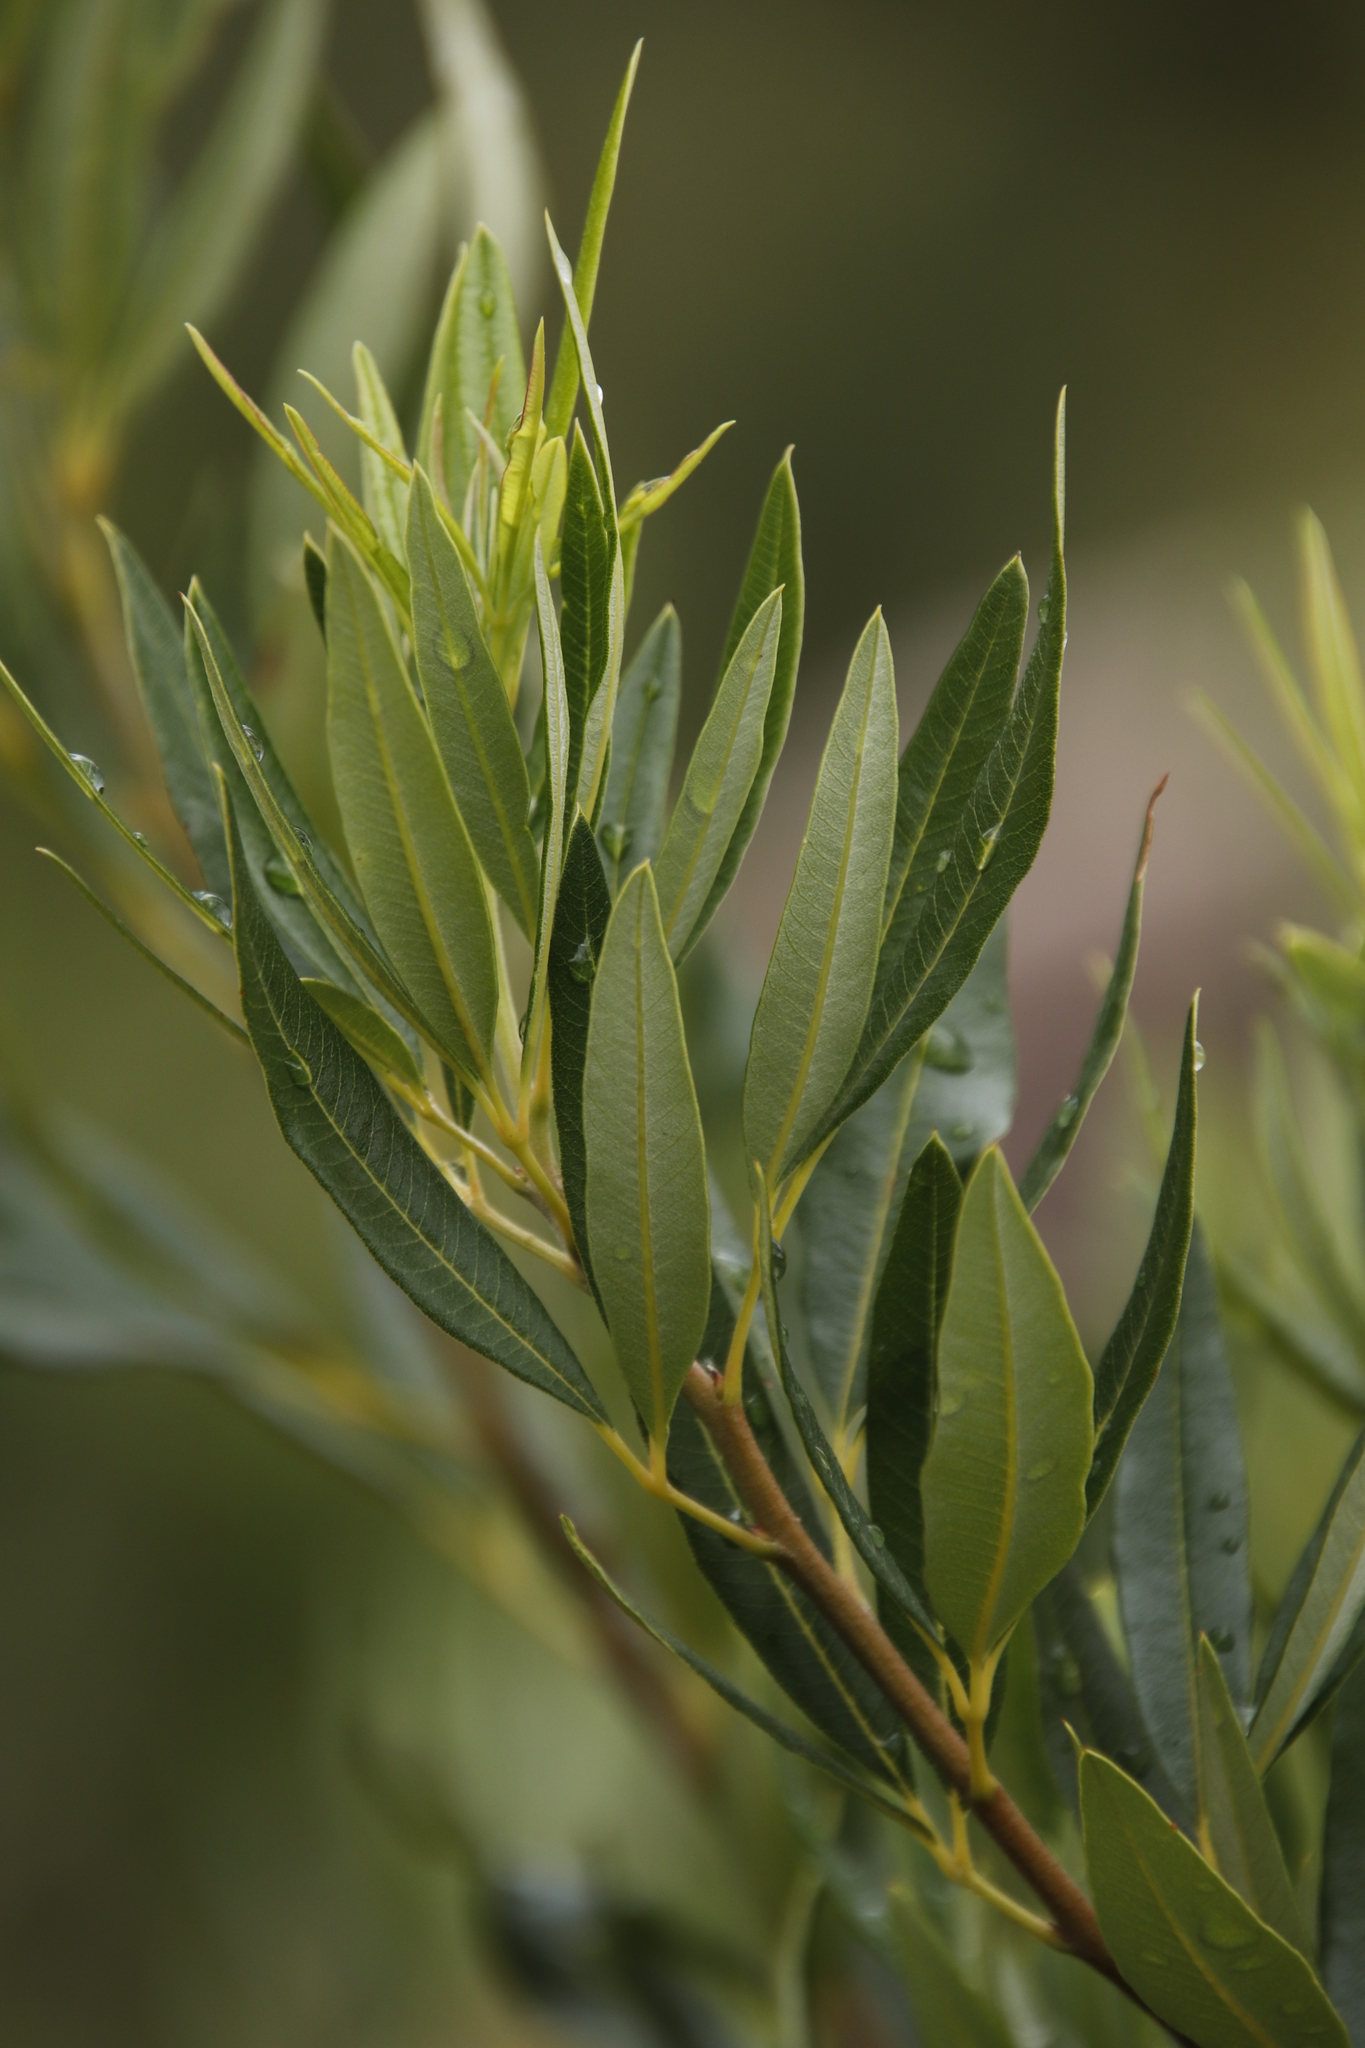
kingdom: Plantae
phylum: Tracheophyta
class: Magnoliopsida
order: Sapindales
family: Anacardiaceae
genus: Searsia
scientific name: Searsia angustifolia
